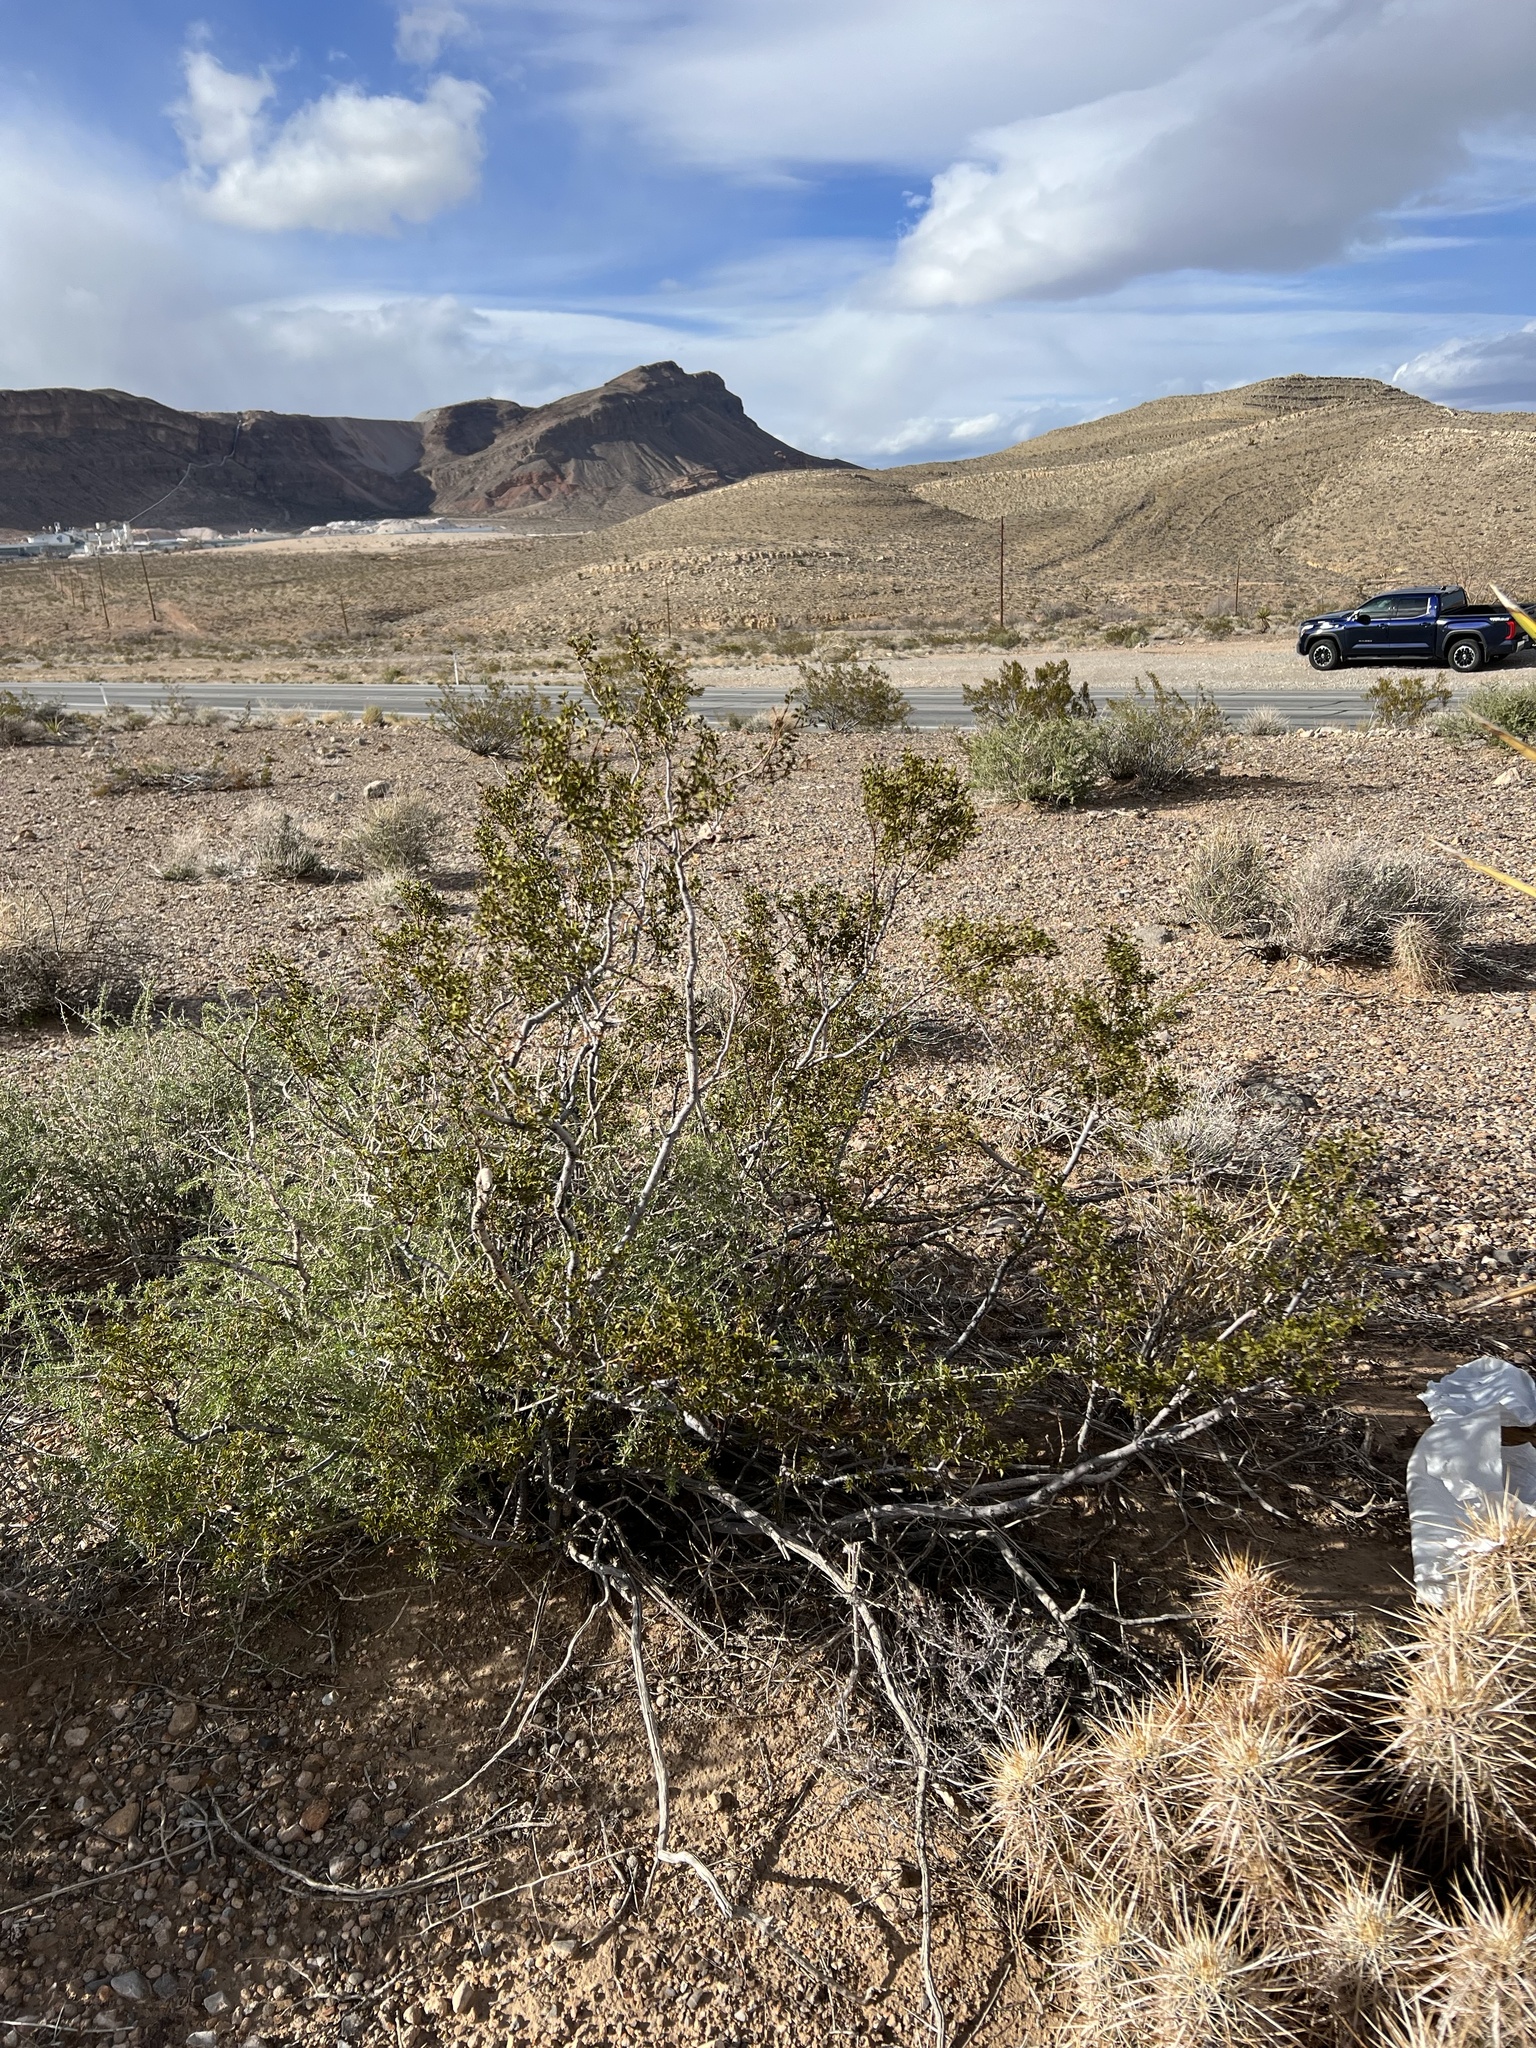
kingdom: Plantae
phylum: Tracheophyta
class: Magnoliopsida
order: Zygophyllales
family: Zygophyllaceae
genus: Larrea
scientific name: Larrea tridentata
